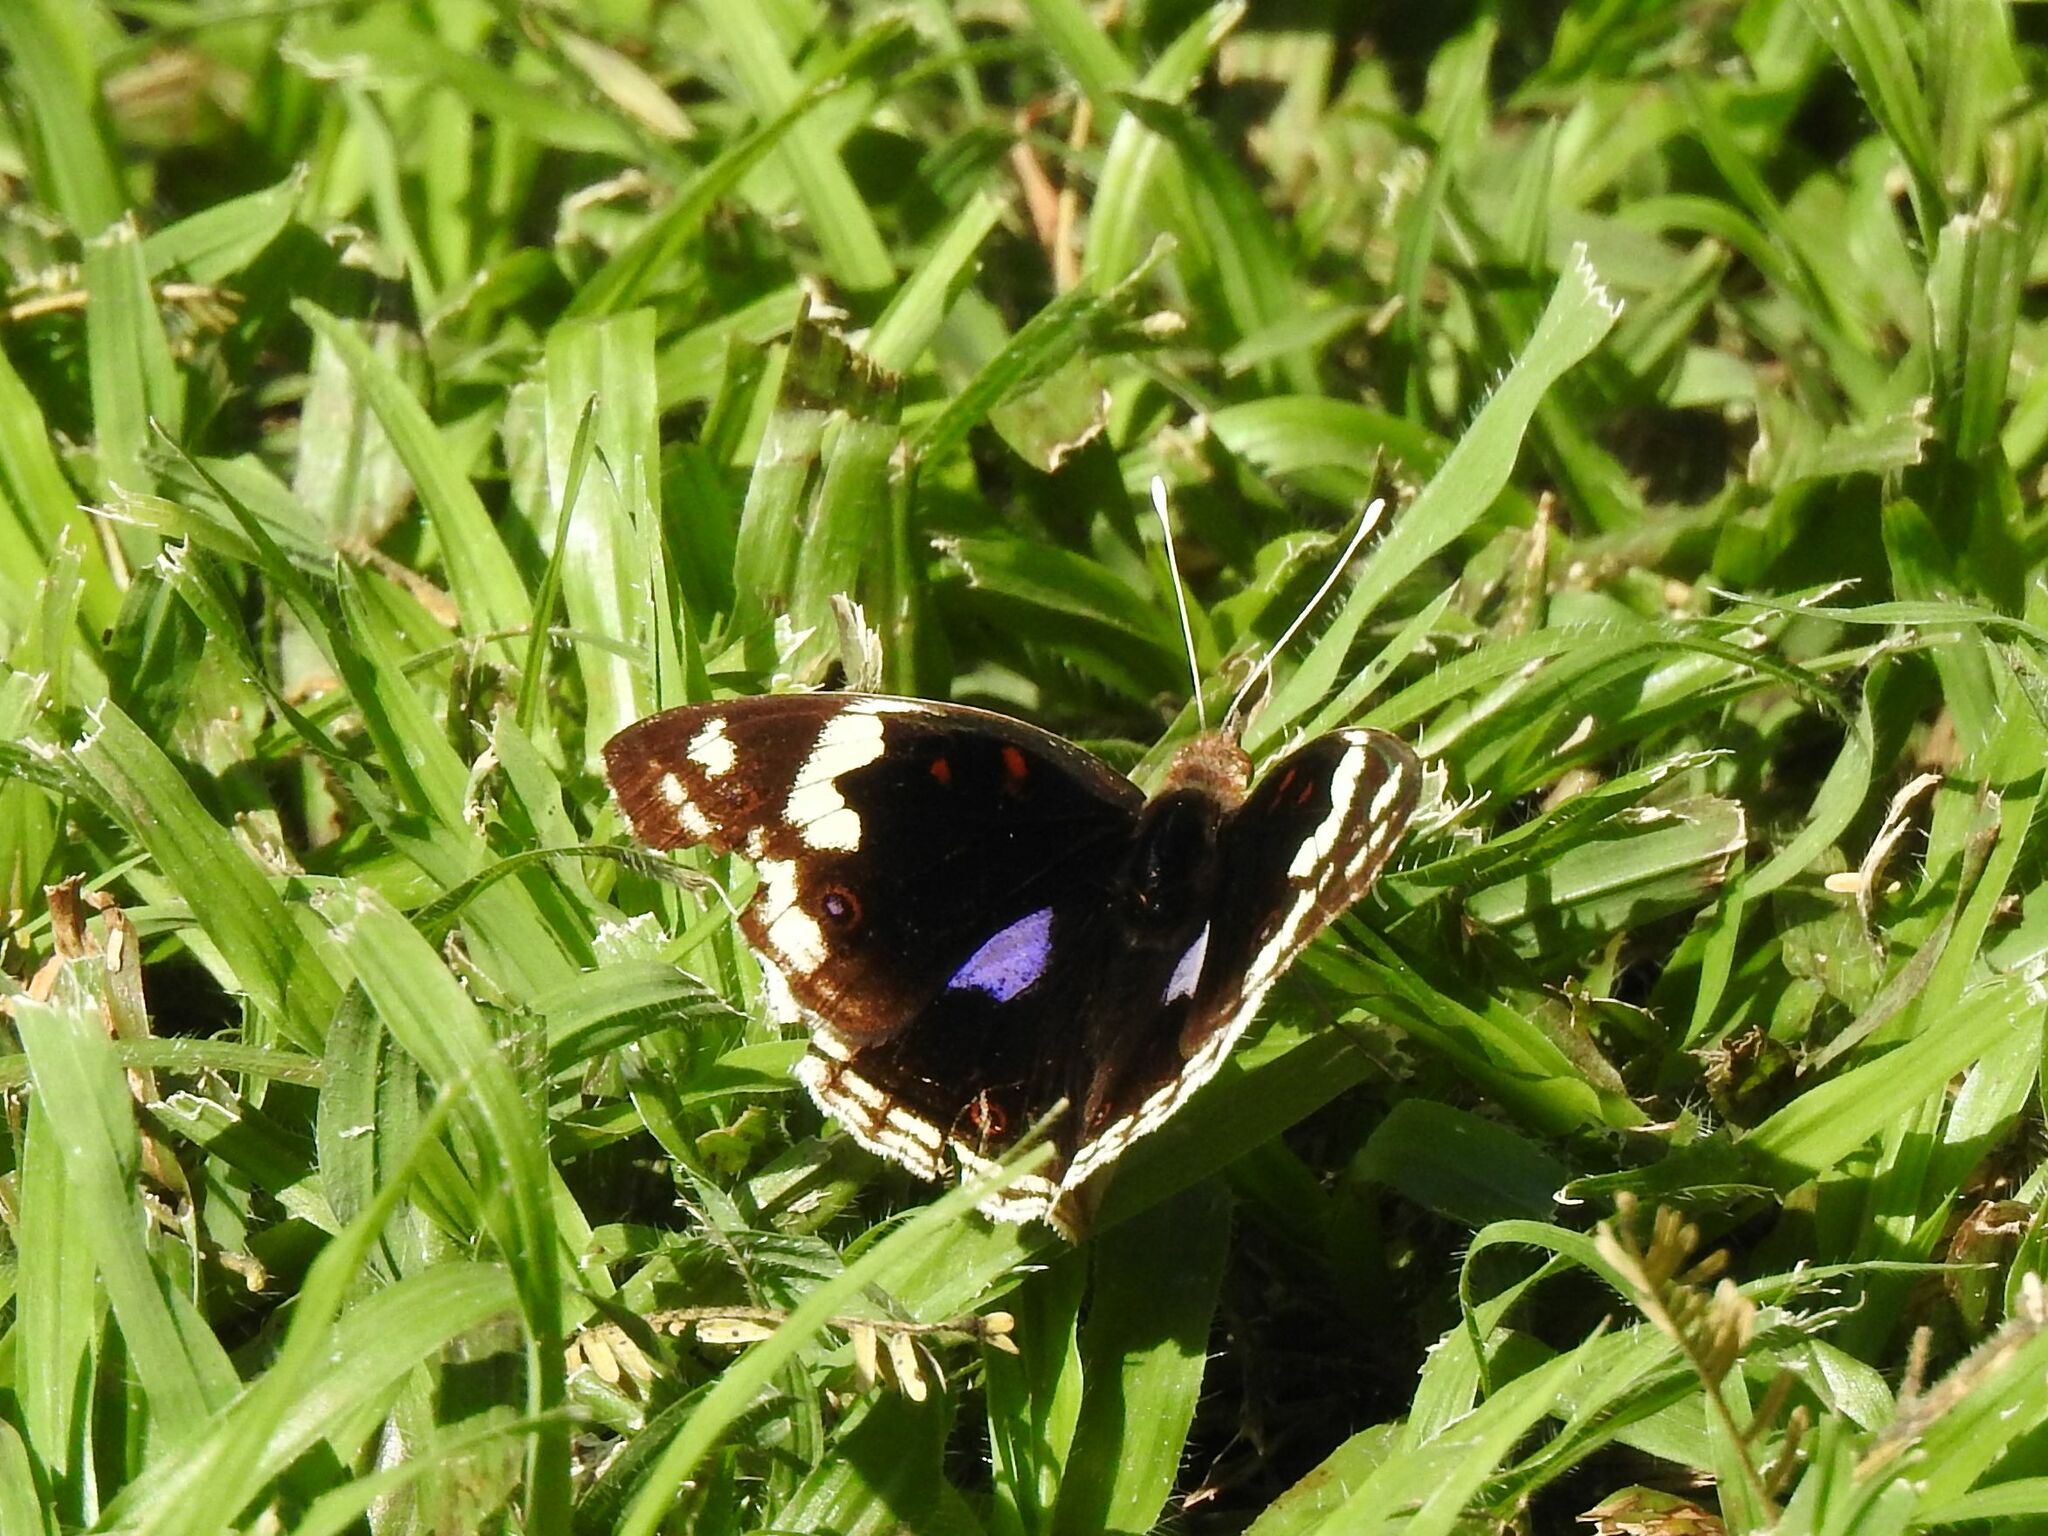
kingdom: Animalia
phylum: Arthropoda
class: Insecta
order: Lepidoptera
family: Nymphalidae
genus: Junonia
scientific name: Junonia oenone
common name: Dark blue pansy
